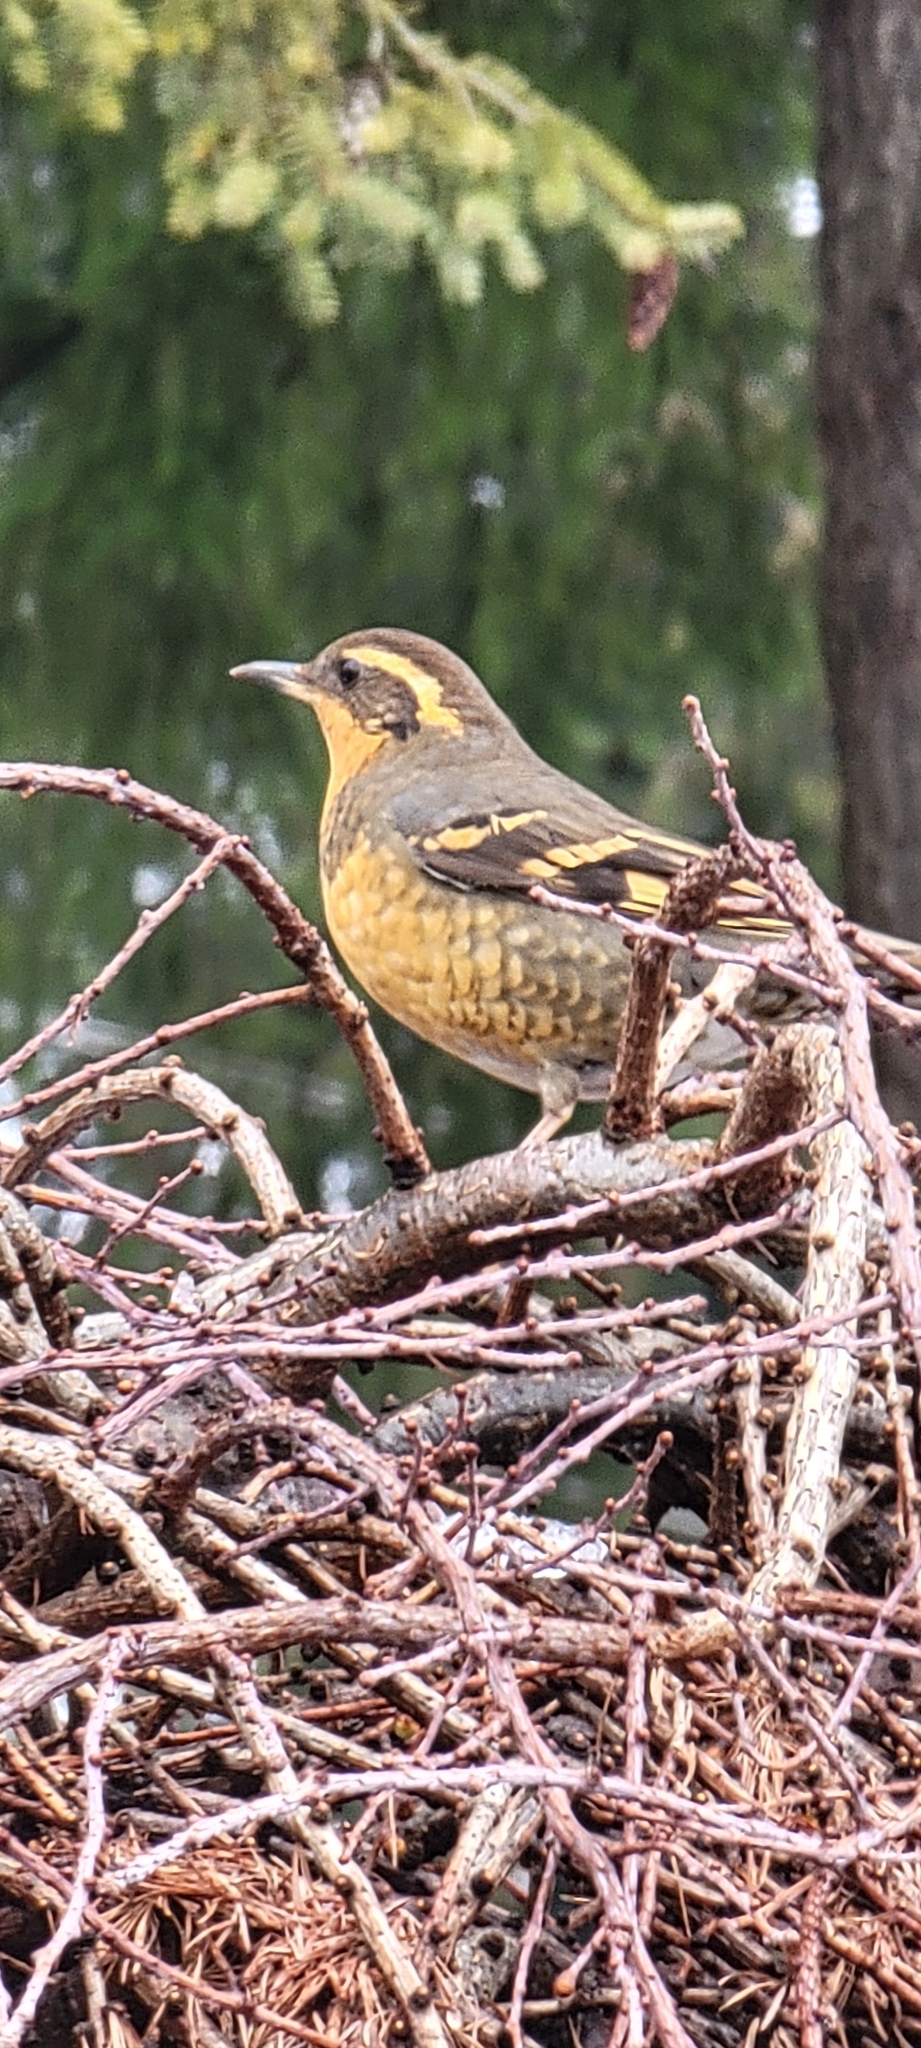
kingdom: Animalia
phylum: Chordata
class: Aves
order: Passeriformes
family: Turdidae
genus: Ixoreus
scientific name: Ixoreus naevius
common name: Varied thrush
